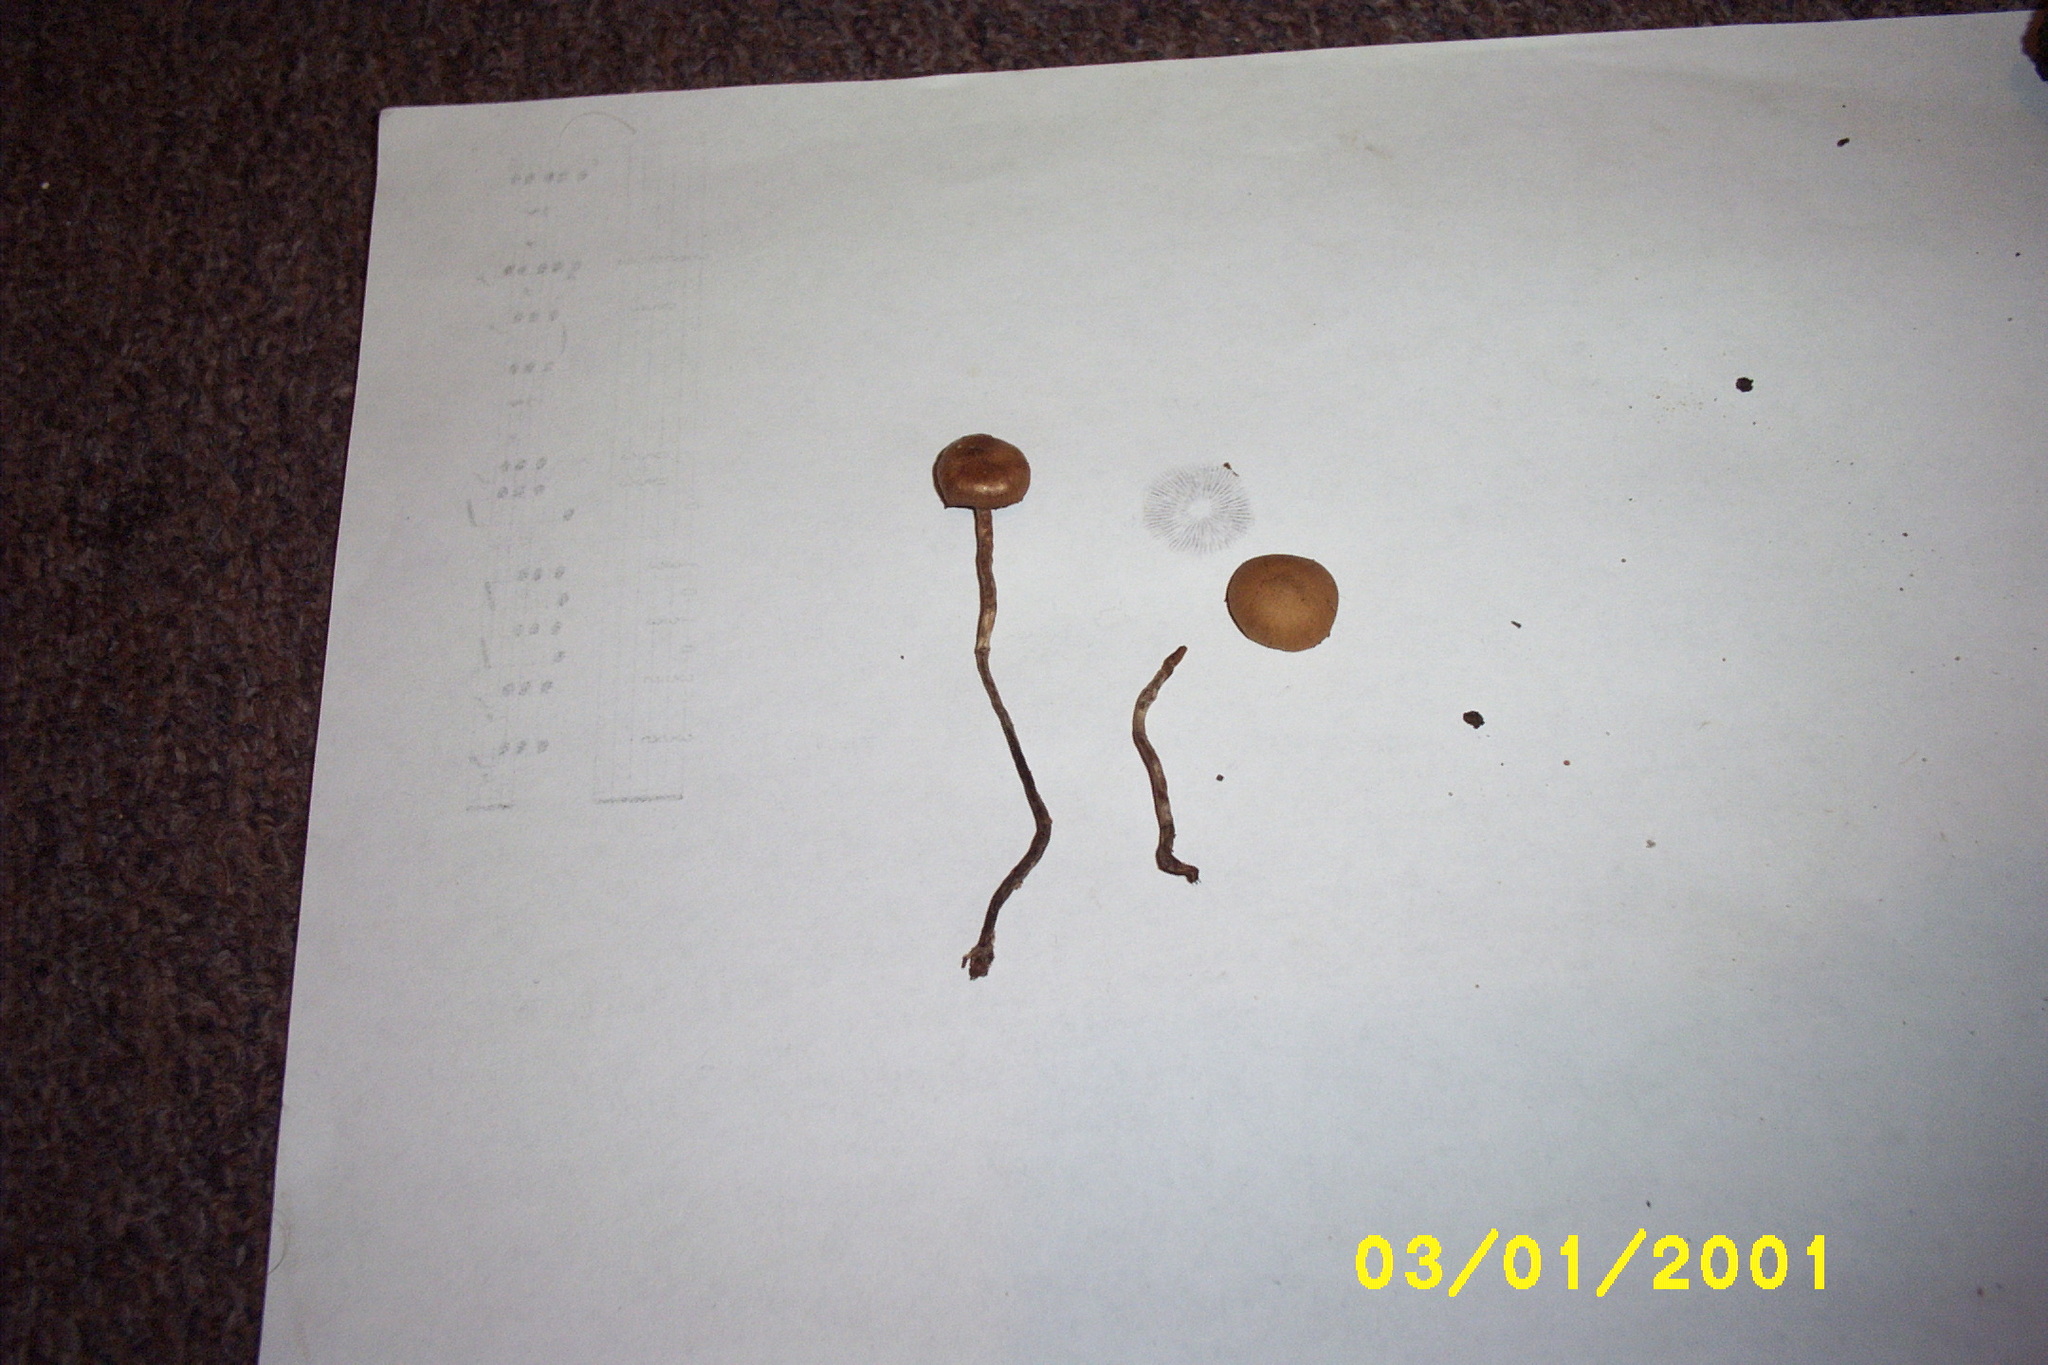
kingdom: Fungi
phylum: Basidiomycota
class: Agaricomycetes
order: Agaricales
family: Hymenogastraceae
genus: Psilocybe
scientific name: Psilocybe fuscofulva
